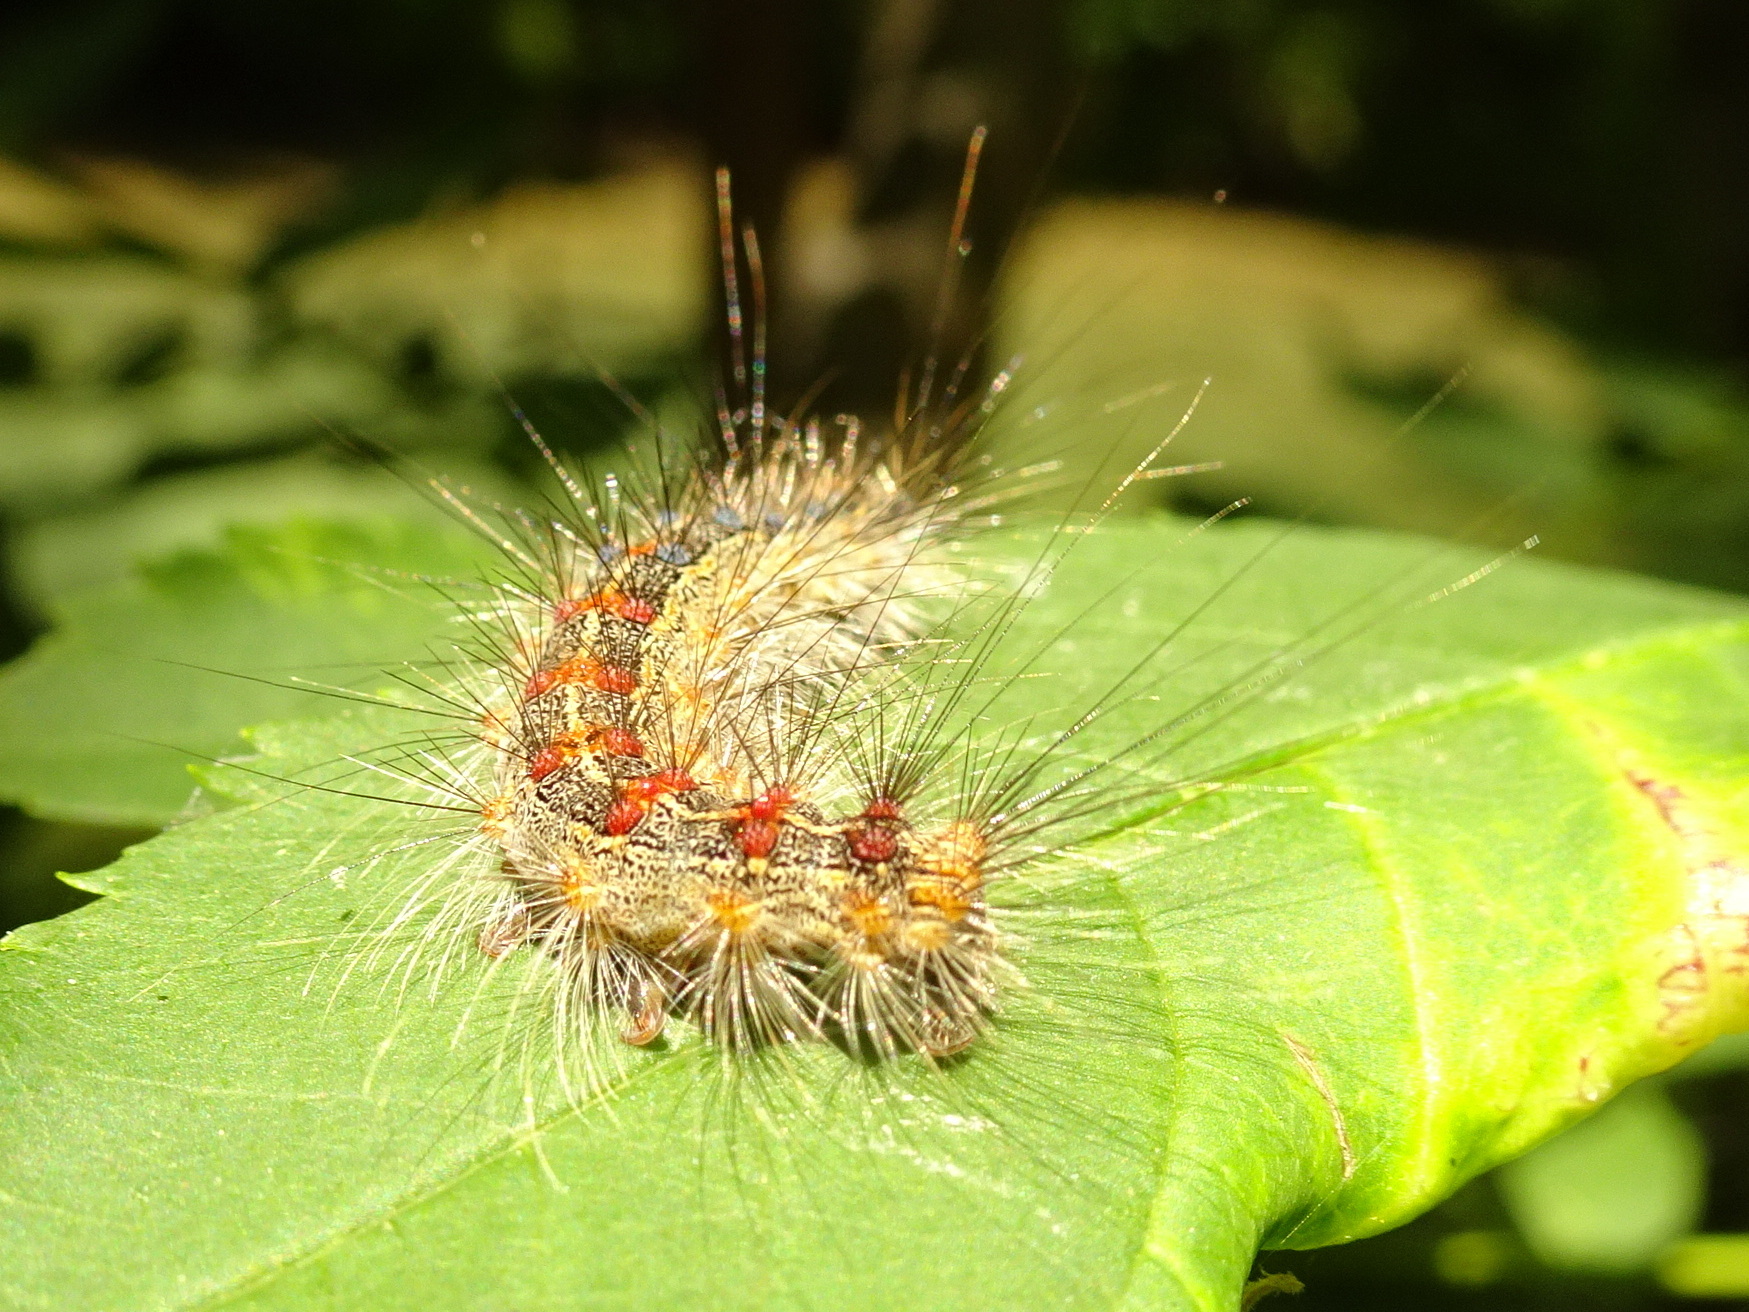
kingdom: Animalia
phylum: Arthropoda
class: Insecta
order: Lepidoptera
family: Erebidae
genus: Lymantria
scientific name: Lymantria dispar
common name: Gypsy moth
